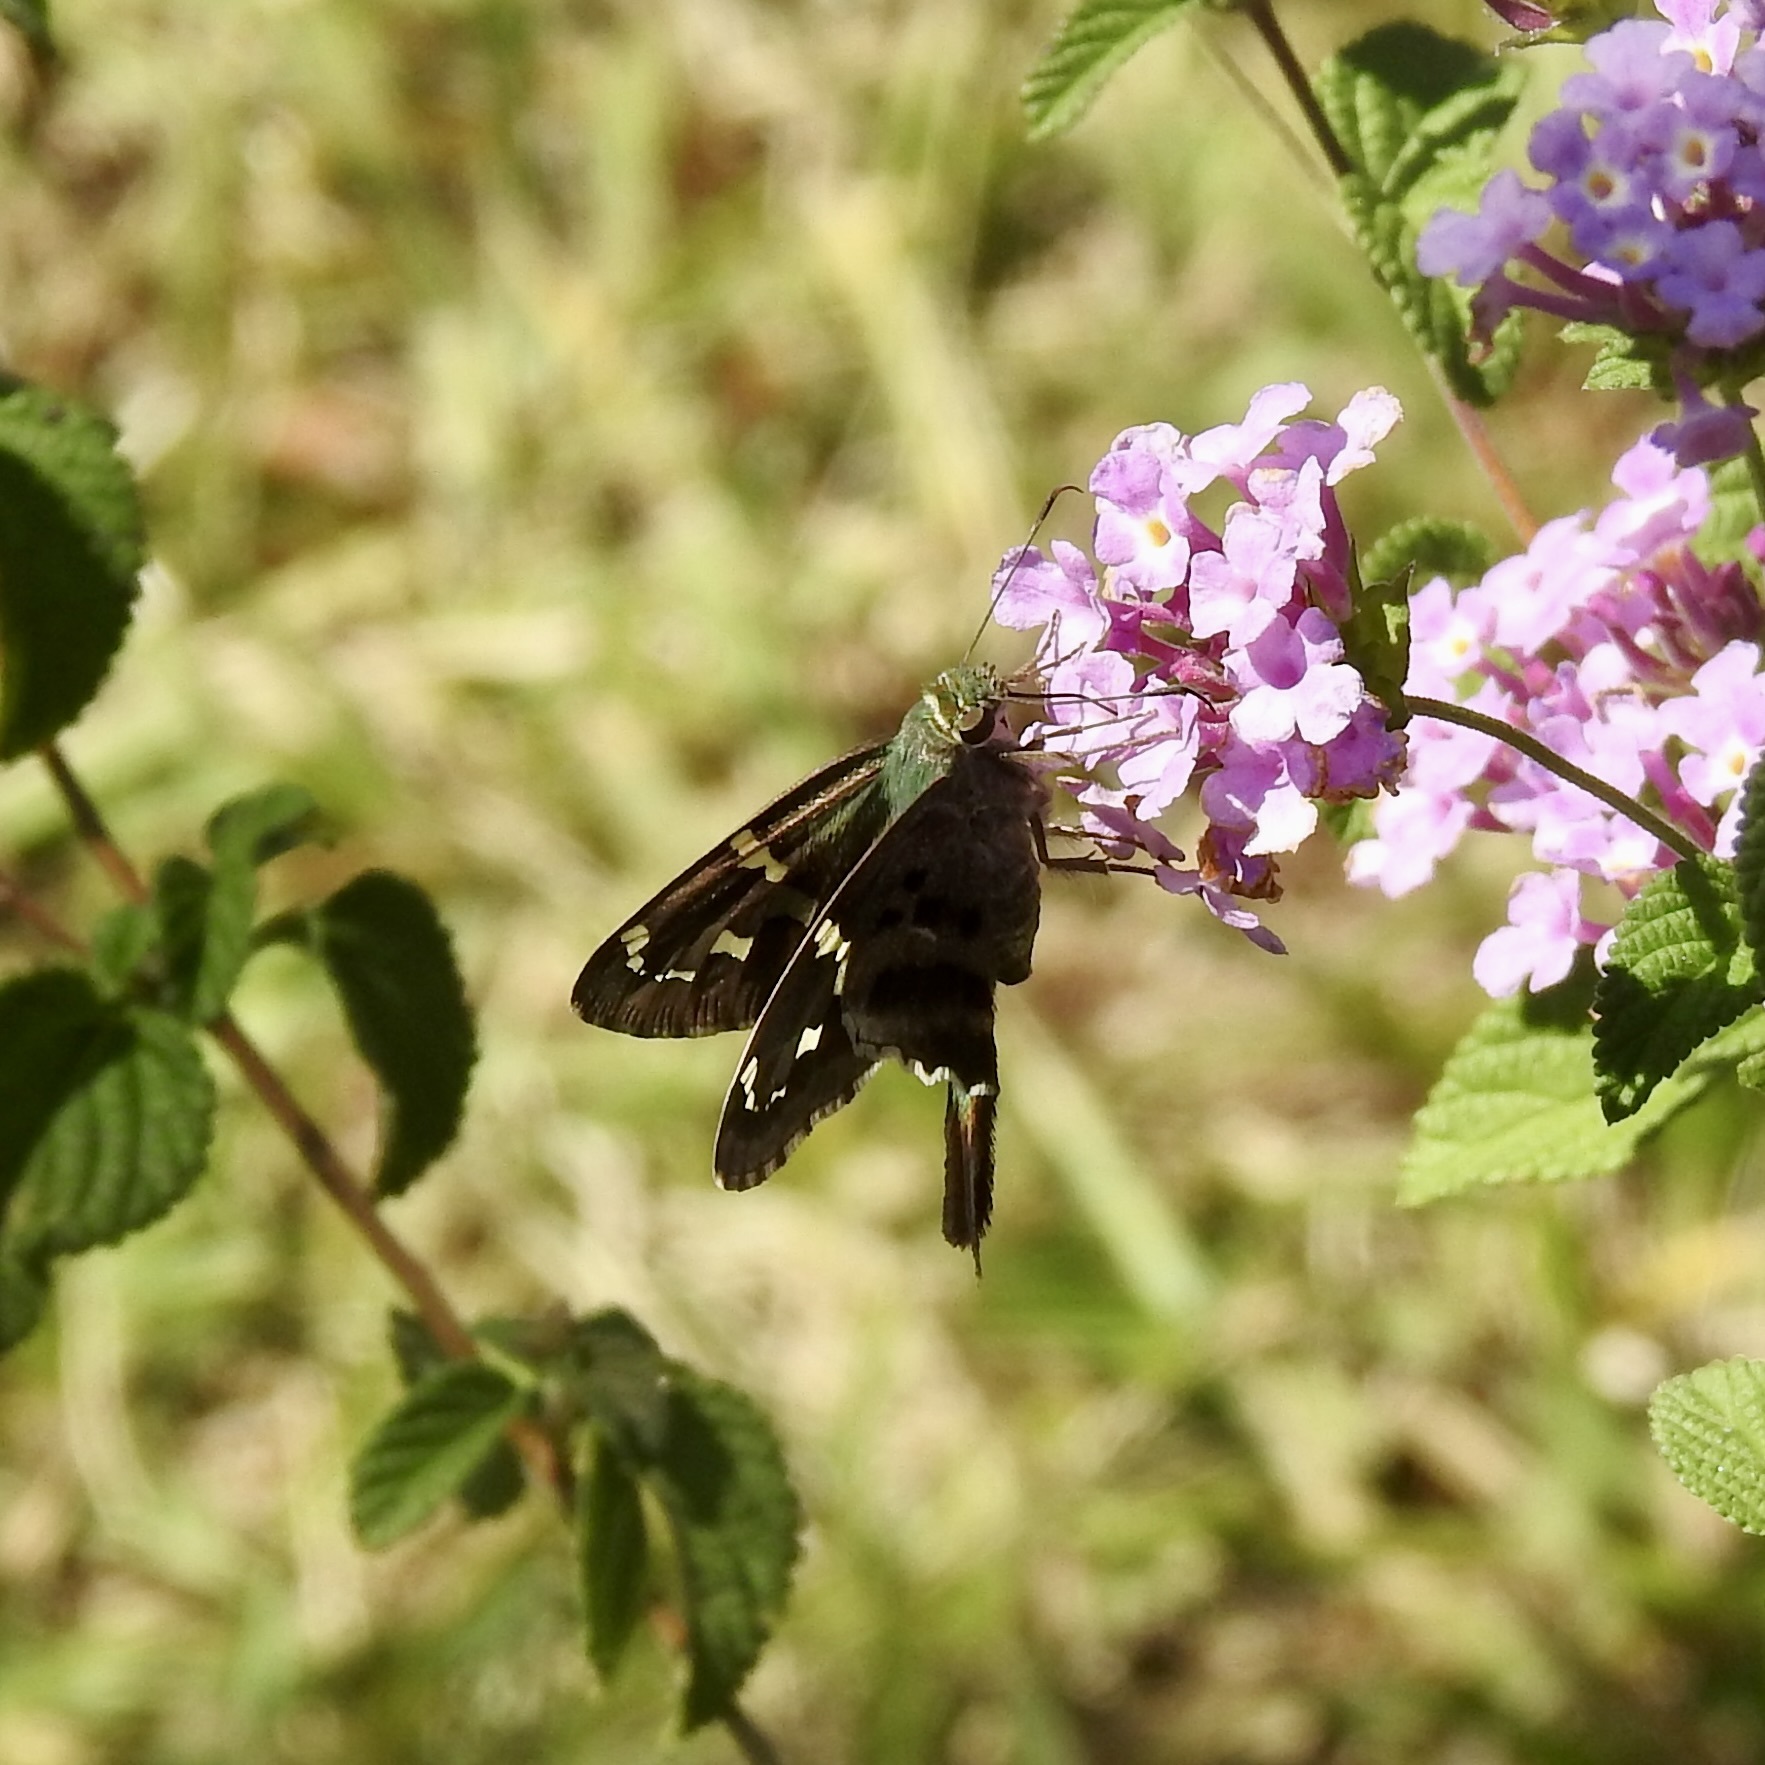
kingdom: Animalia
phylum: Arthropoda
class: Insecta
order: Lepidoptera
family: Hesperiidae
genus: Urbanus
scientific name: Urbanus proteus
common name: Long-tailed skipper
